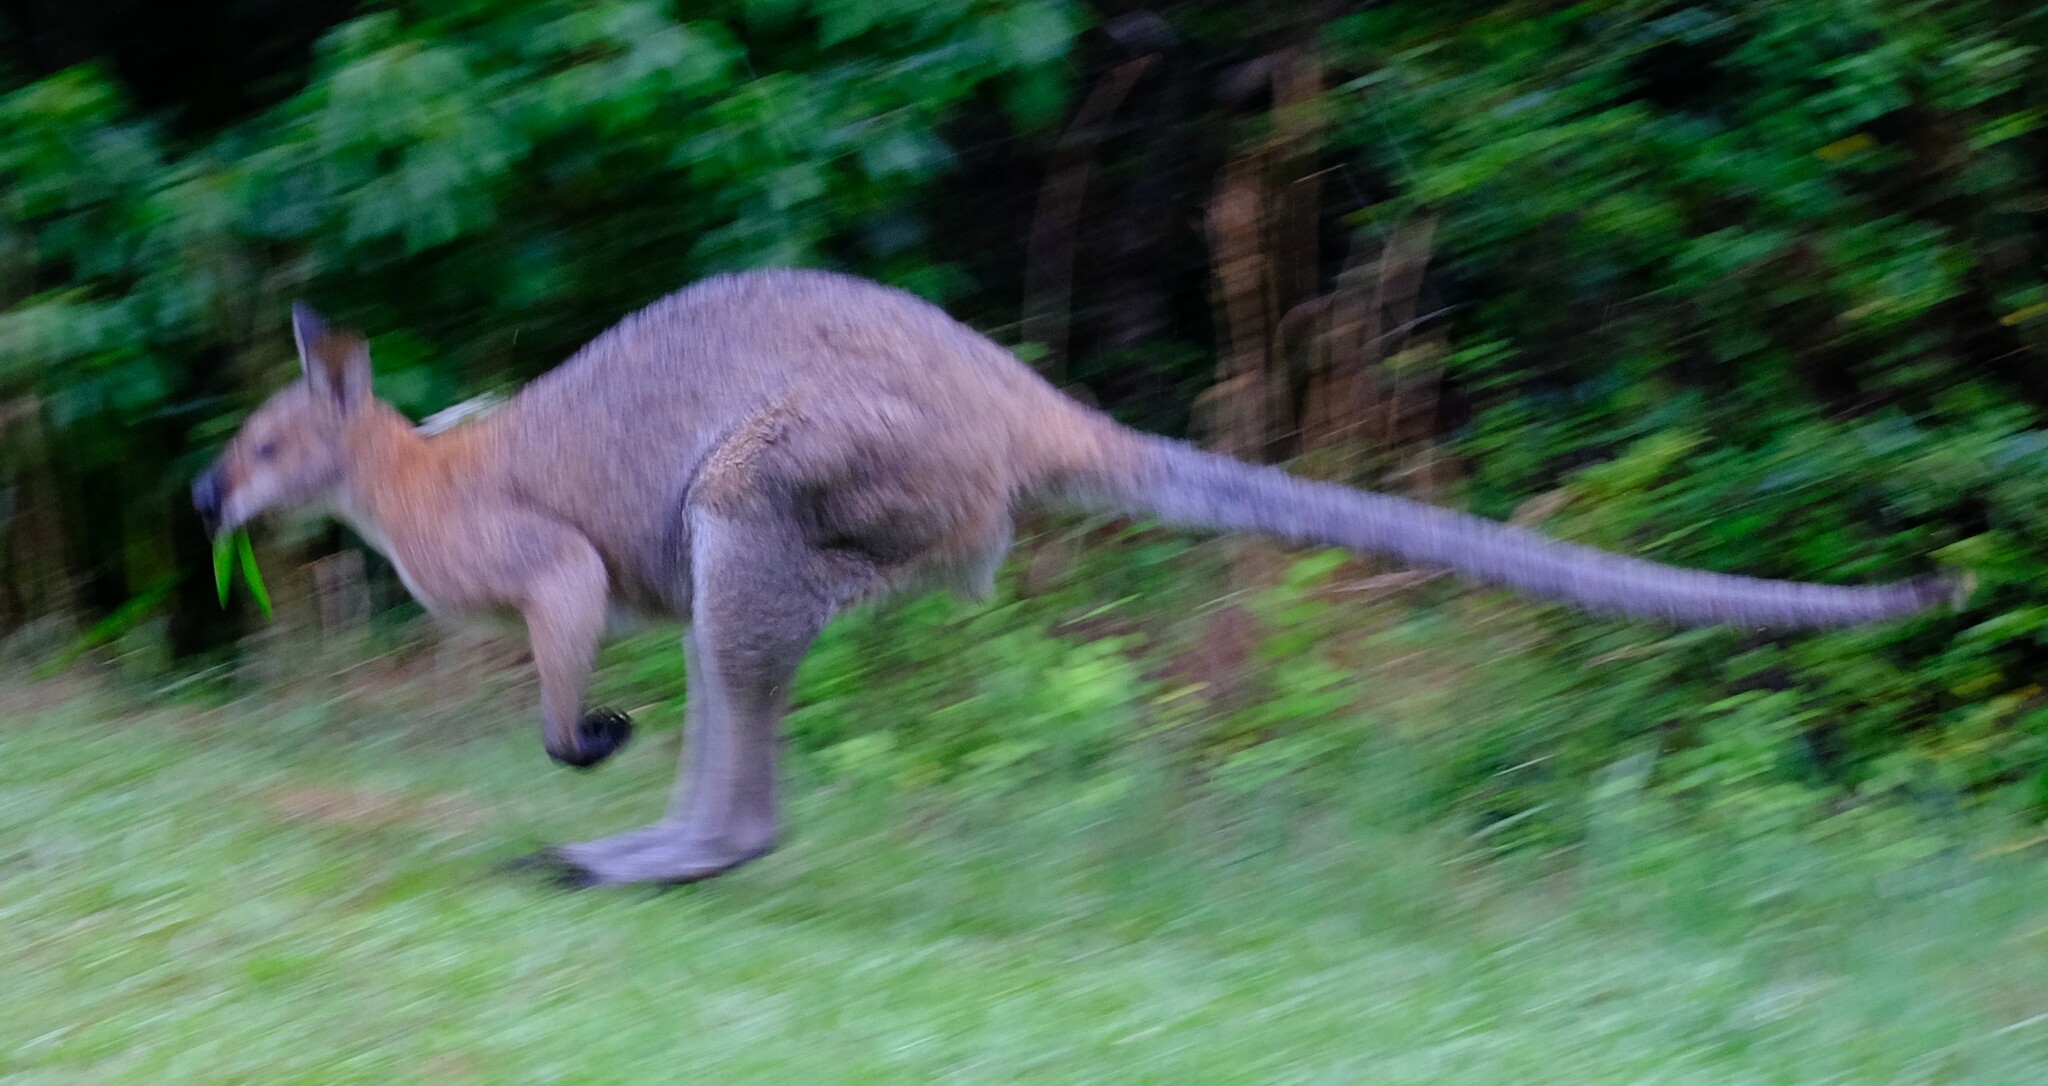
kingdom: Animalia
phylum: Chordata
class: Mammalia
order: Diprotodontia
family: Macropodidae
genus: Notamacropus
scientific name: Notamacropus rufogriseus
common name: Red-necked wallaby
